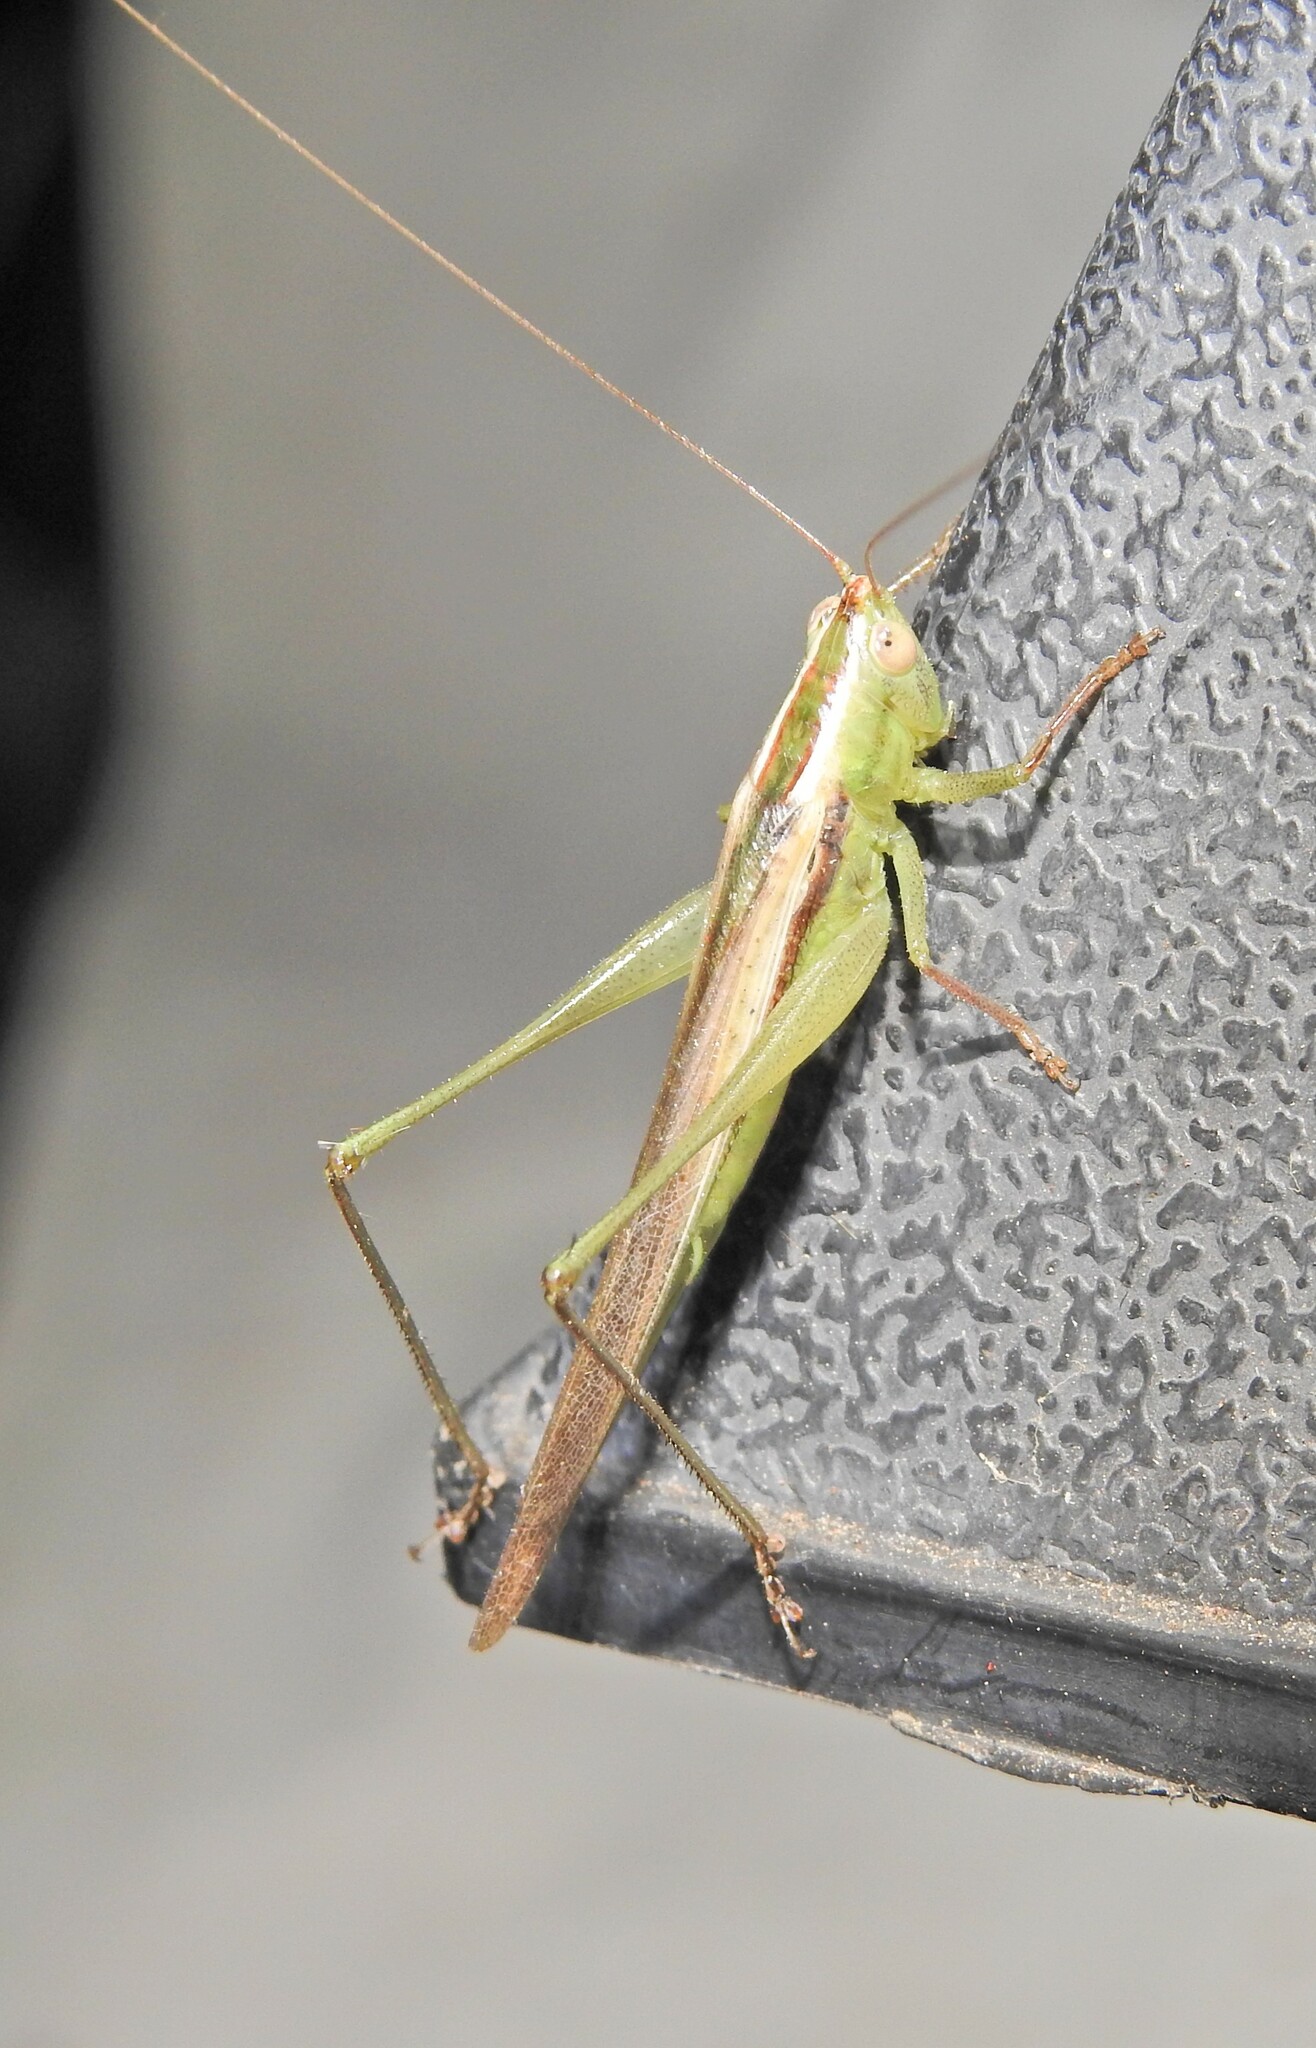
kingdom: Animalia
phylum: Arthropoda
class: Insecta
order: Orthoptera
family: Tettigoniidae
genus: Conocephalus
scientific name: Conocephalus upoluensis
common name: Upolu meadow katydid
